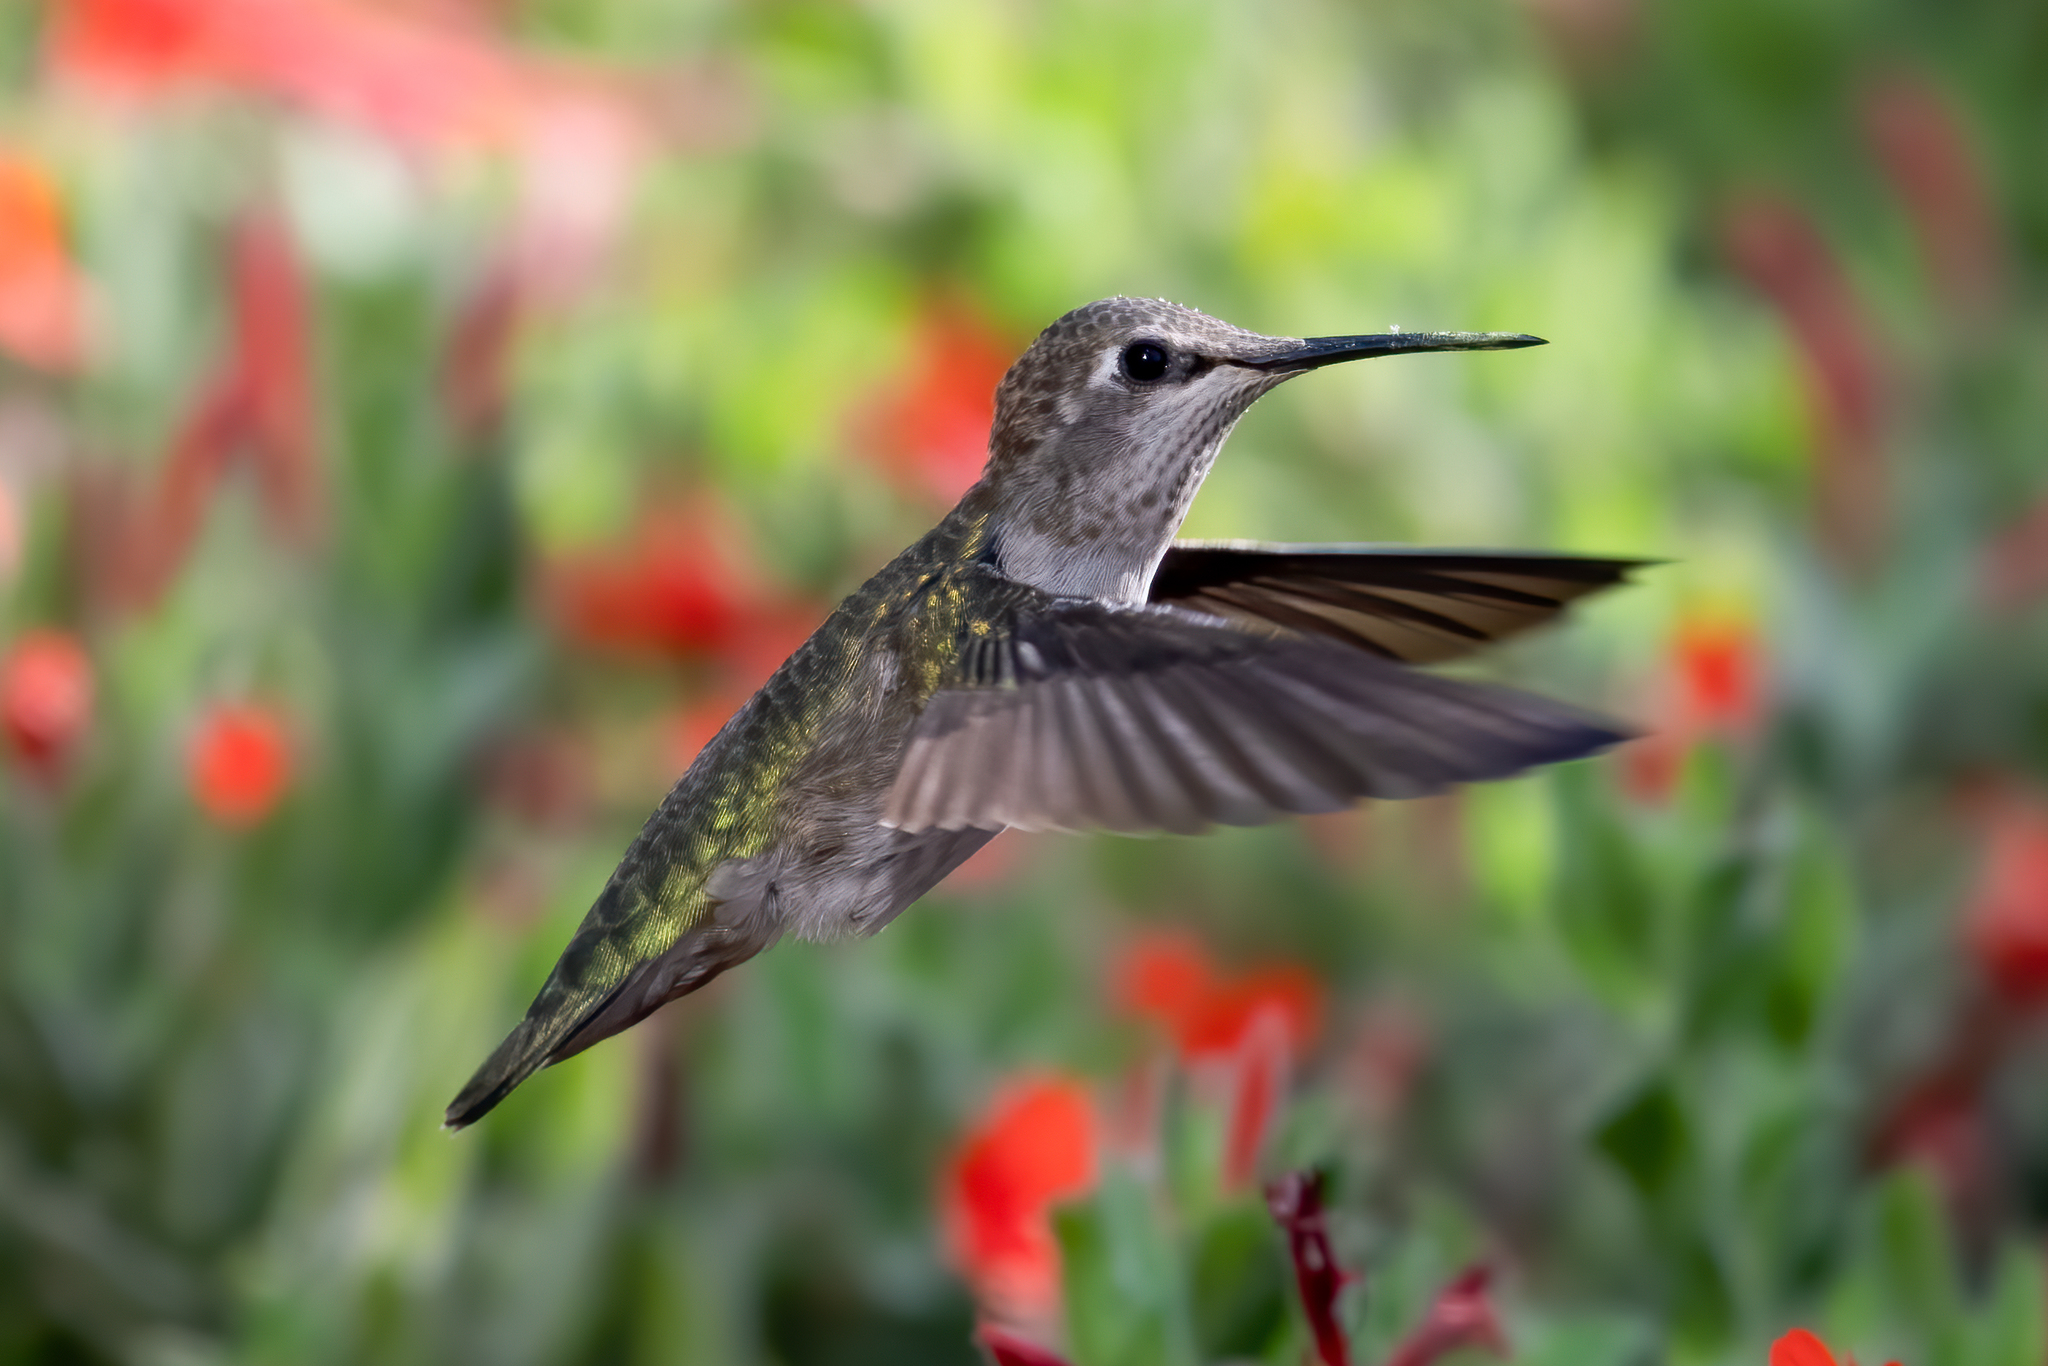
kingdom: Animalia
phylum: Chordata
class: Aves
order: Apodiformes
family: Trochilidae
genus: Calypte
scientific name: Calypte anna
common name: Anna's hummingbird
